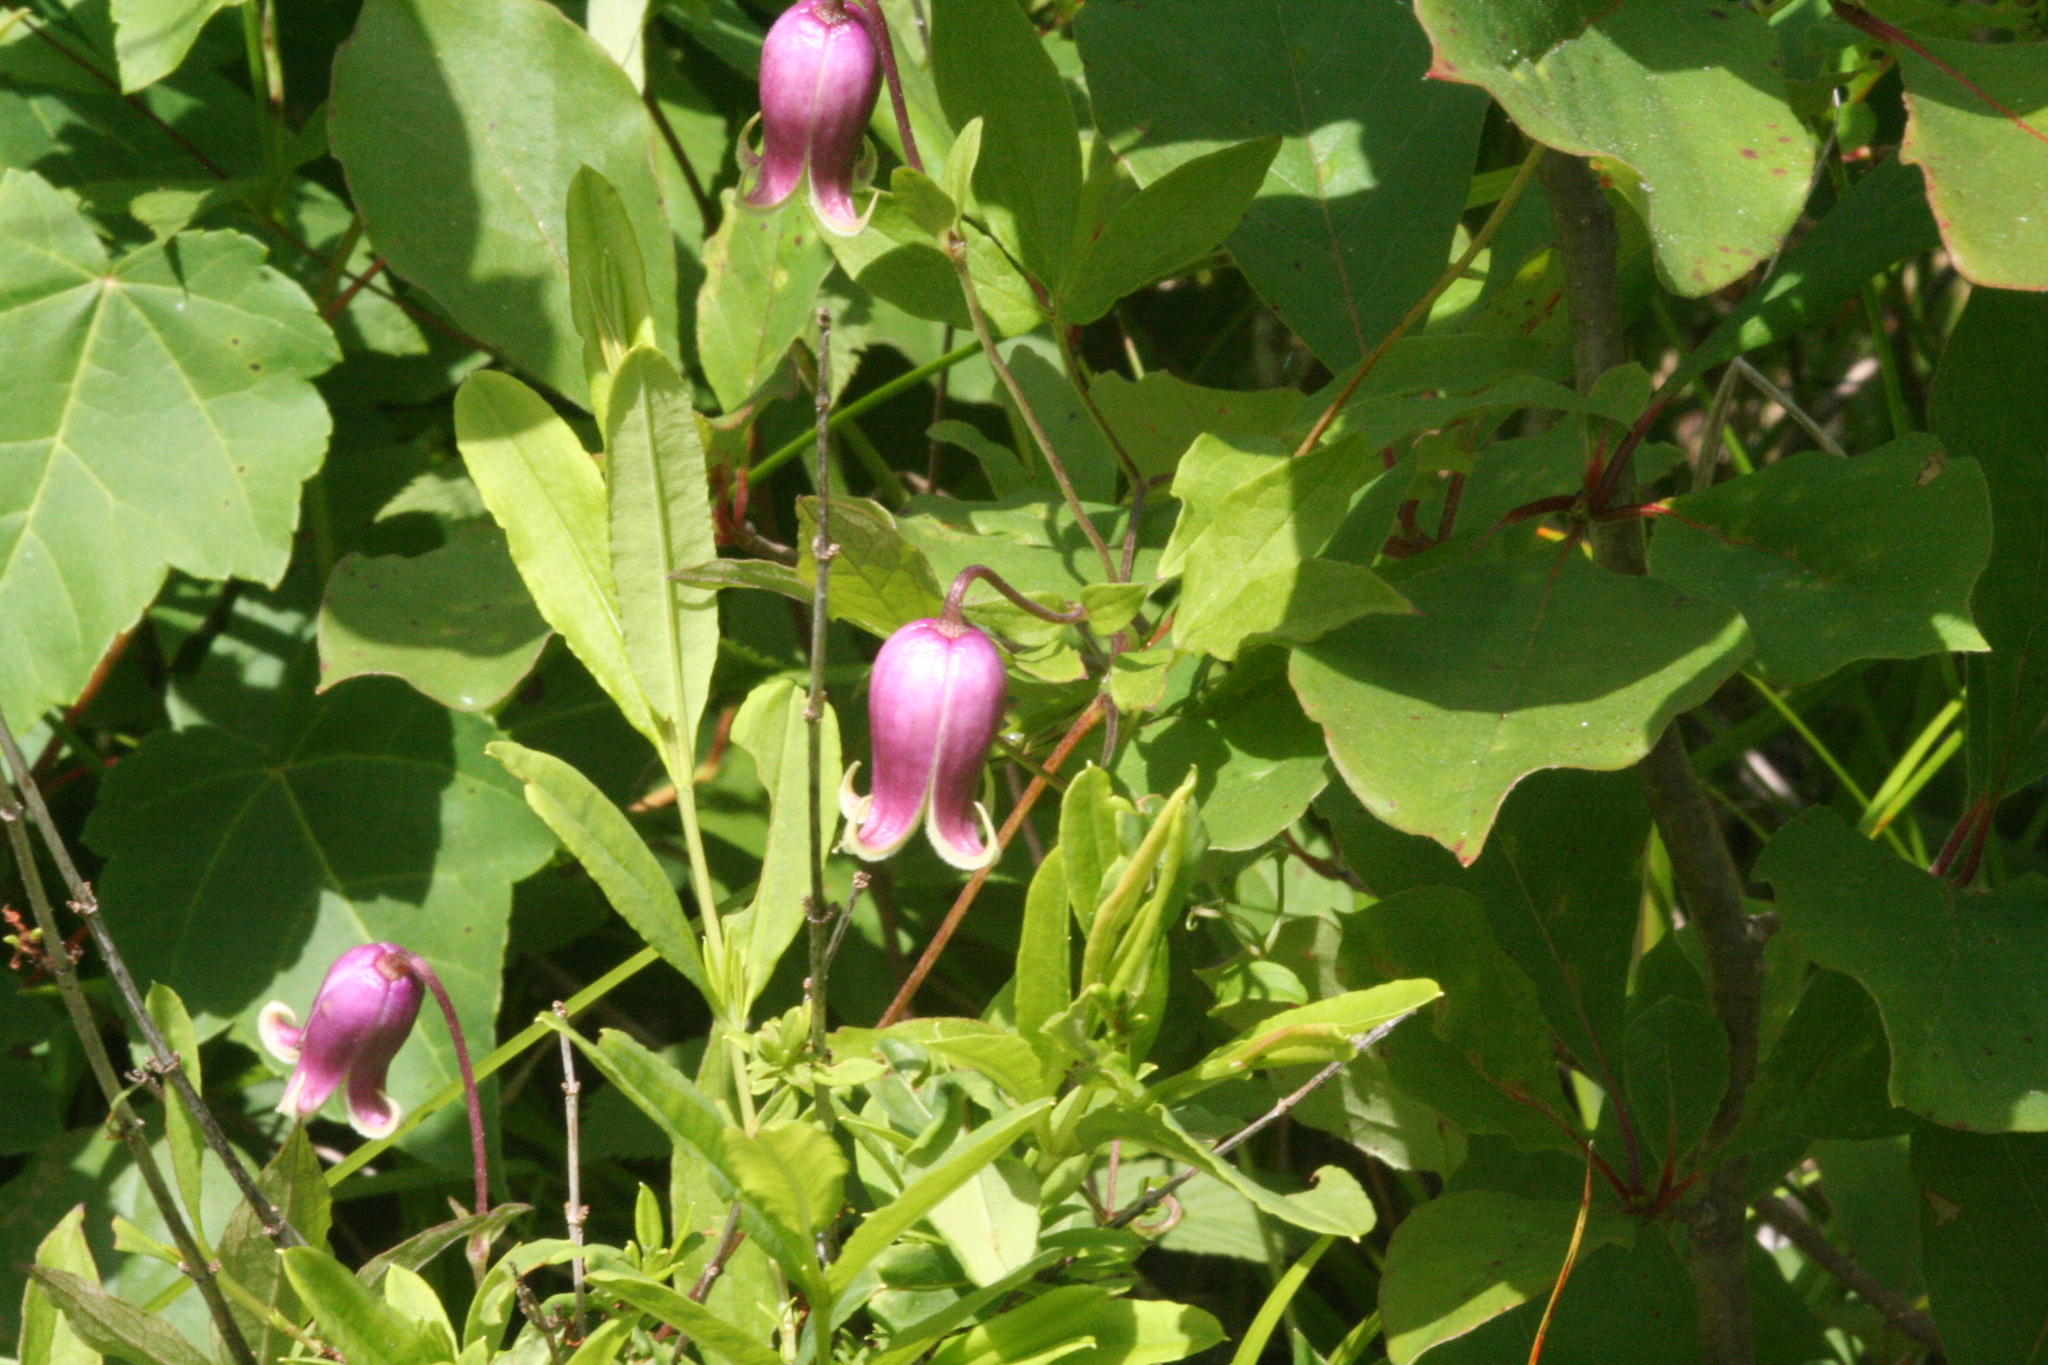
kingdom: Plantae
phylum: Tracheophyta
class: Magnoliopsida
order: Ranunculales
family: Ranunculaceae
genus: Clematis
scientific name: Clematis viorna
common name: Leather-flower
